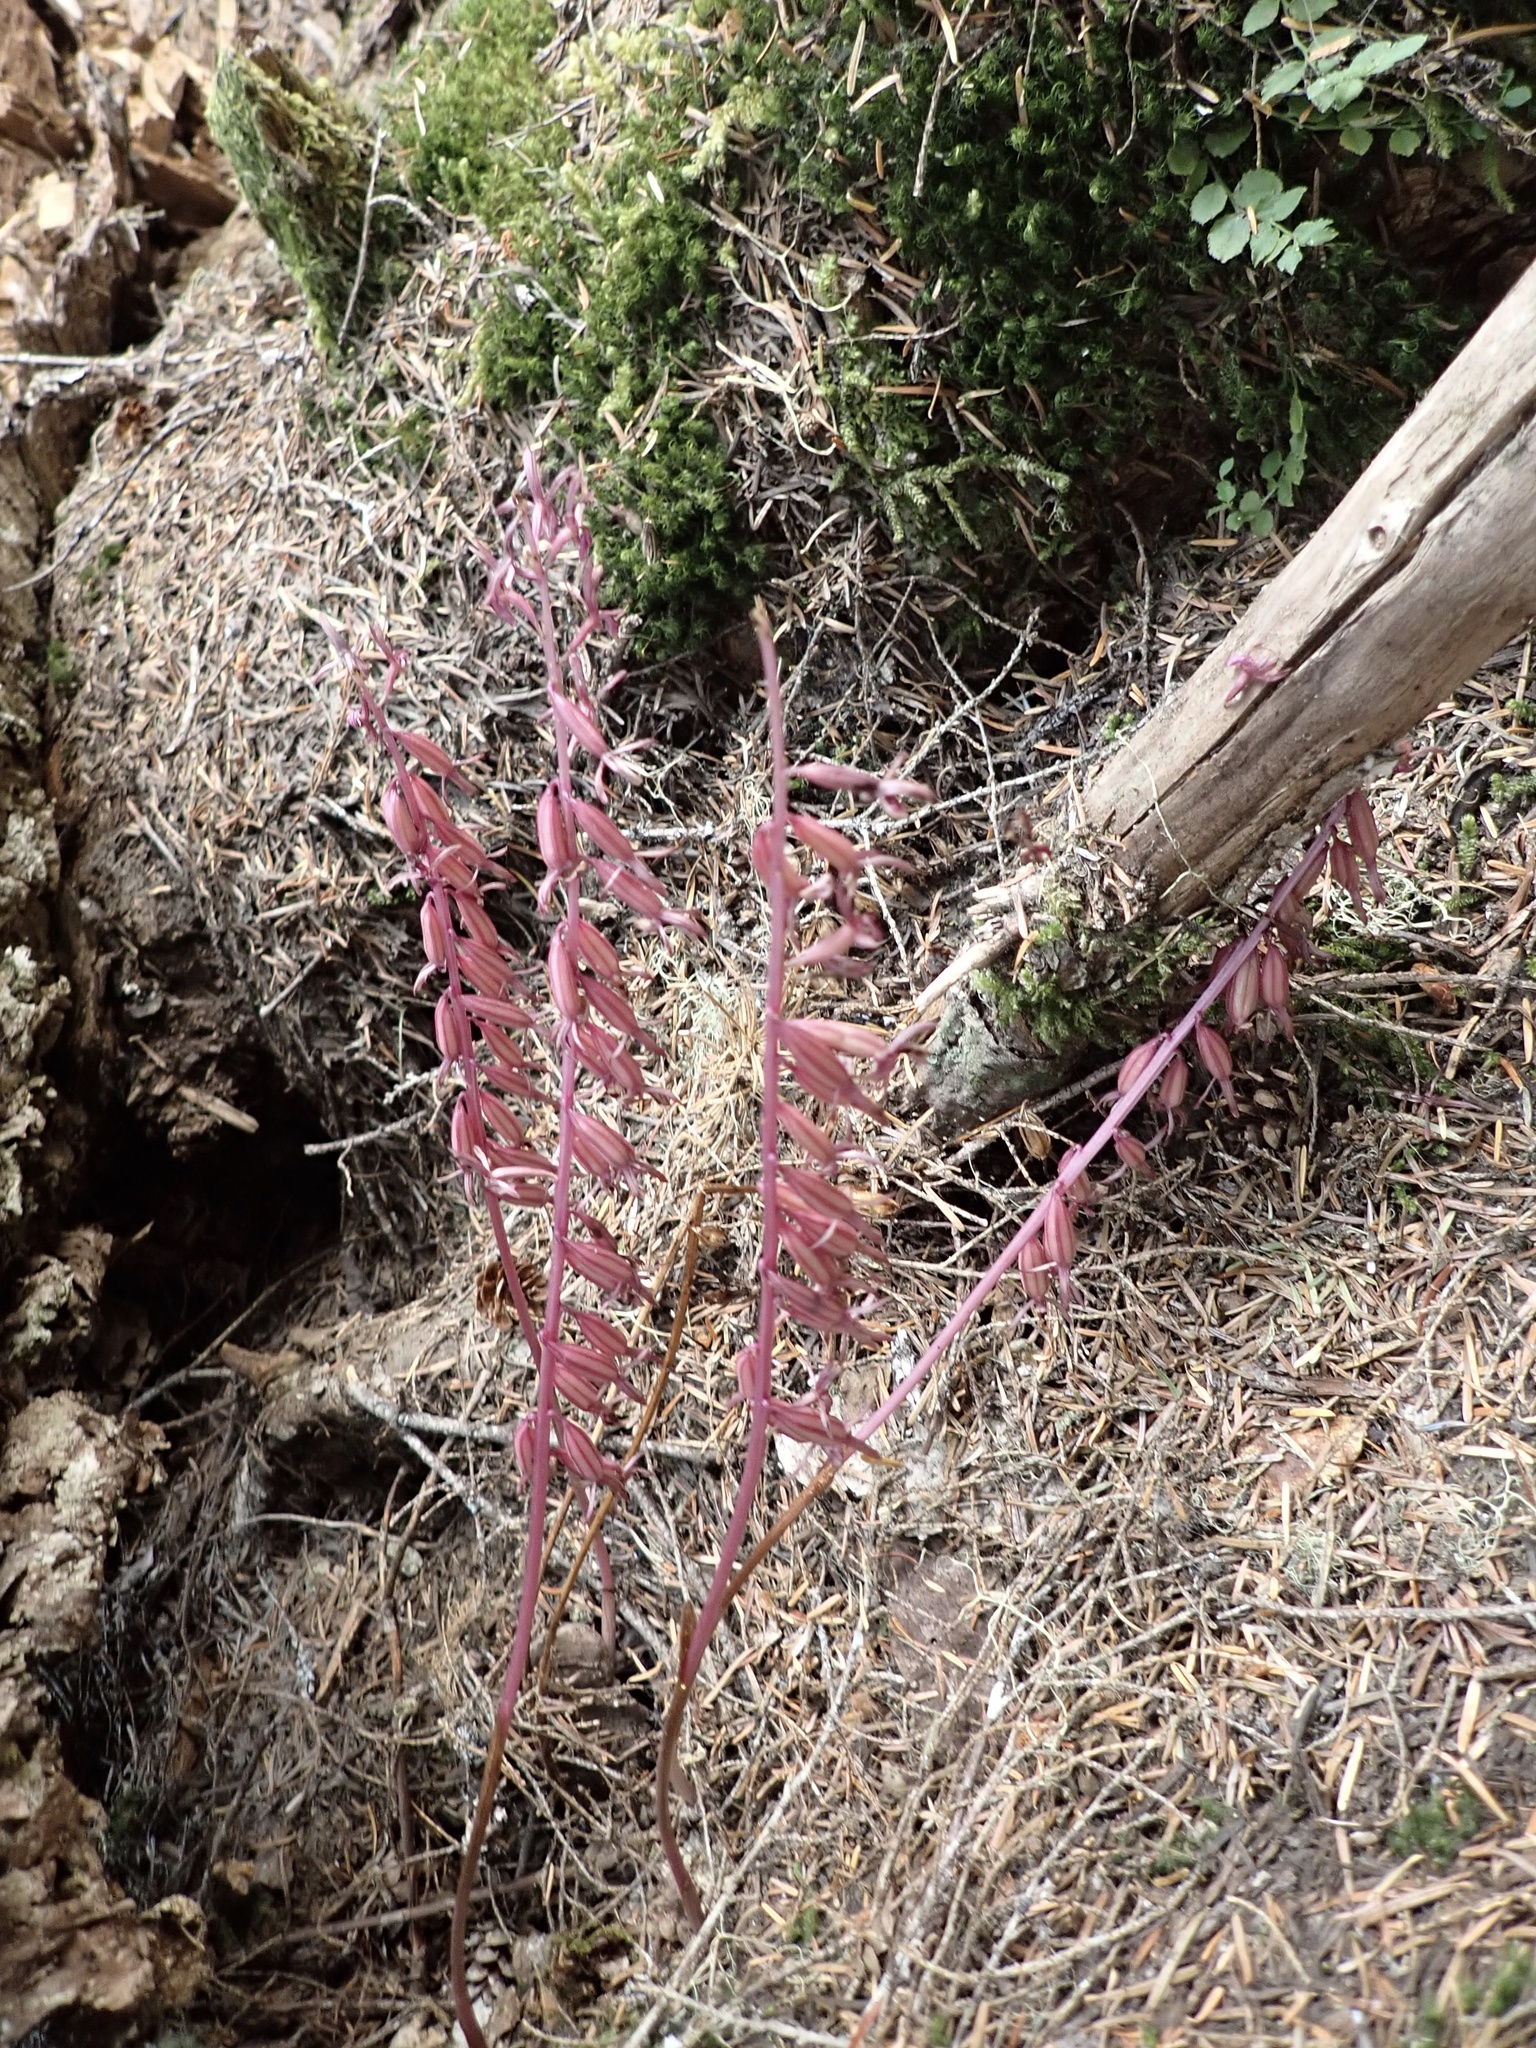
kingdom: Plantae
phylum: Tracheophyta
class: Liliopsida
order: Asparagales
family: Orchidaceae
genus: Corallorhiza
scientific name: Corallorhiza mertensiana
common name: Pacific coralroot
